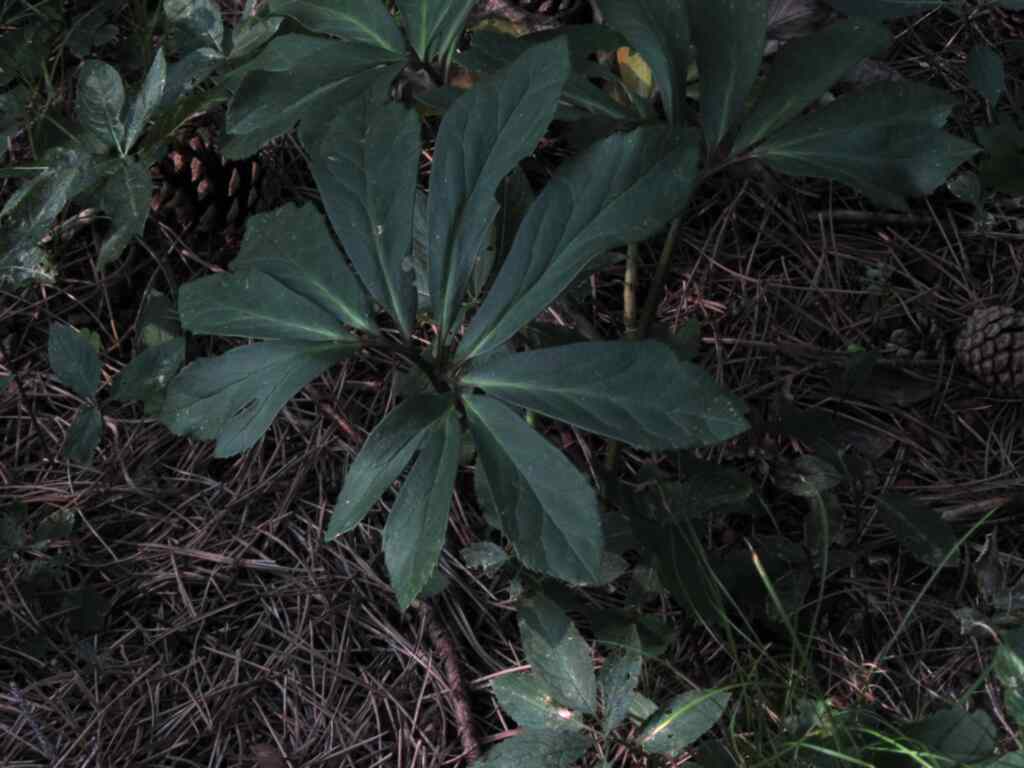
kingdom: Plantae
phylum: Tracheophyta
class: Magnoliopsida
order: Ranunculales
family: Ranunculaceae
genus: Helleborus
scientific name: Helleborus niger
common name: Black hellebore
